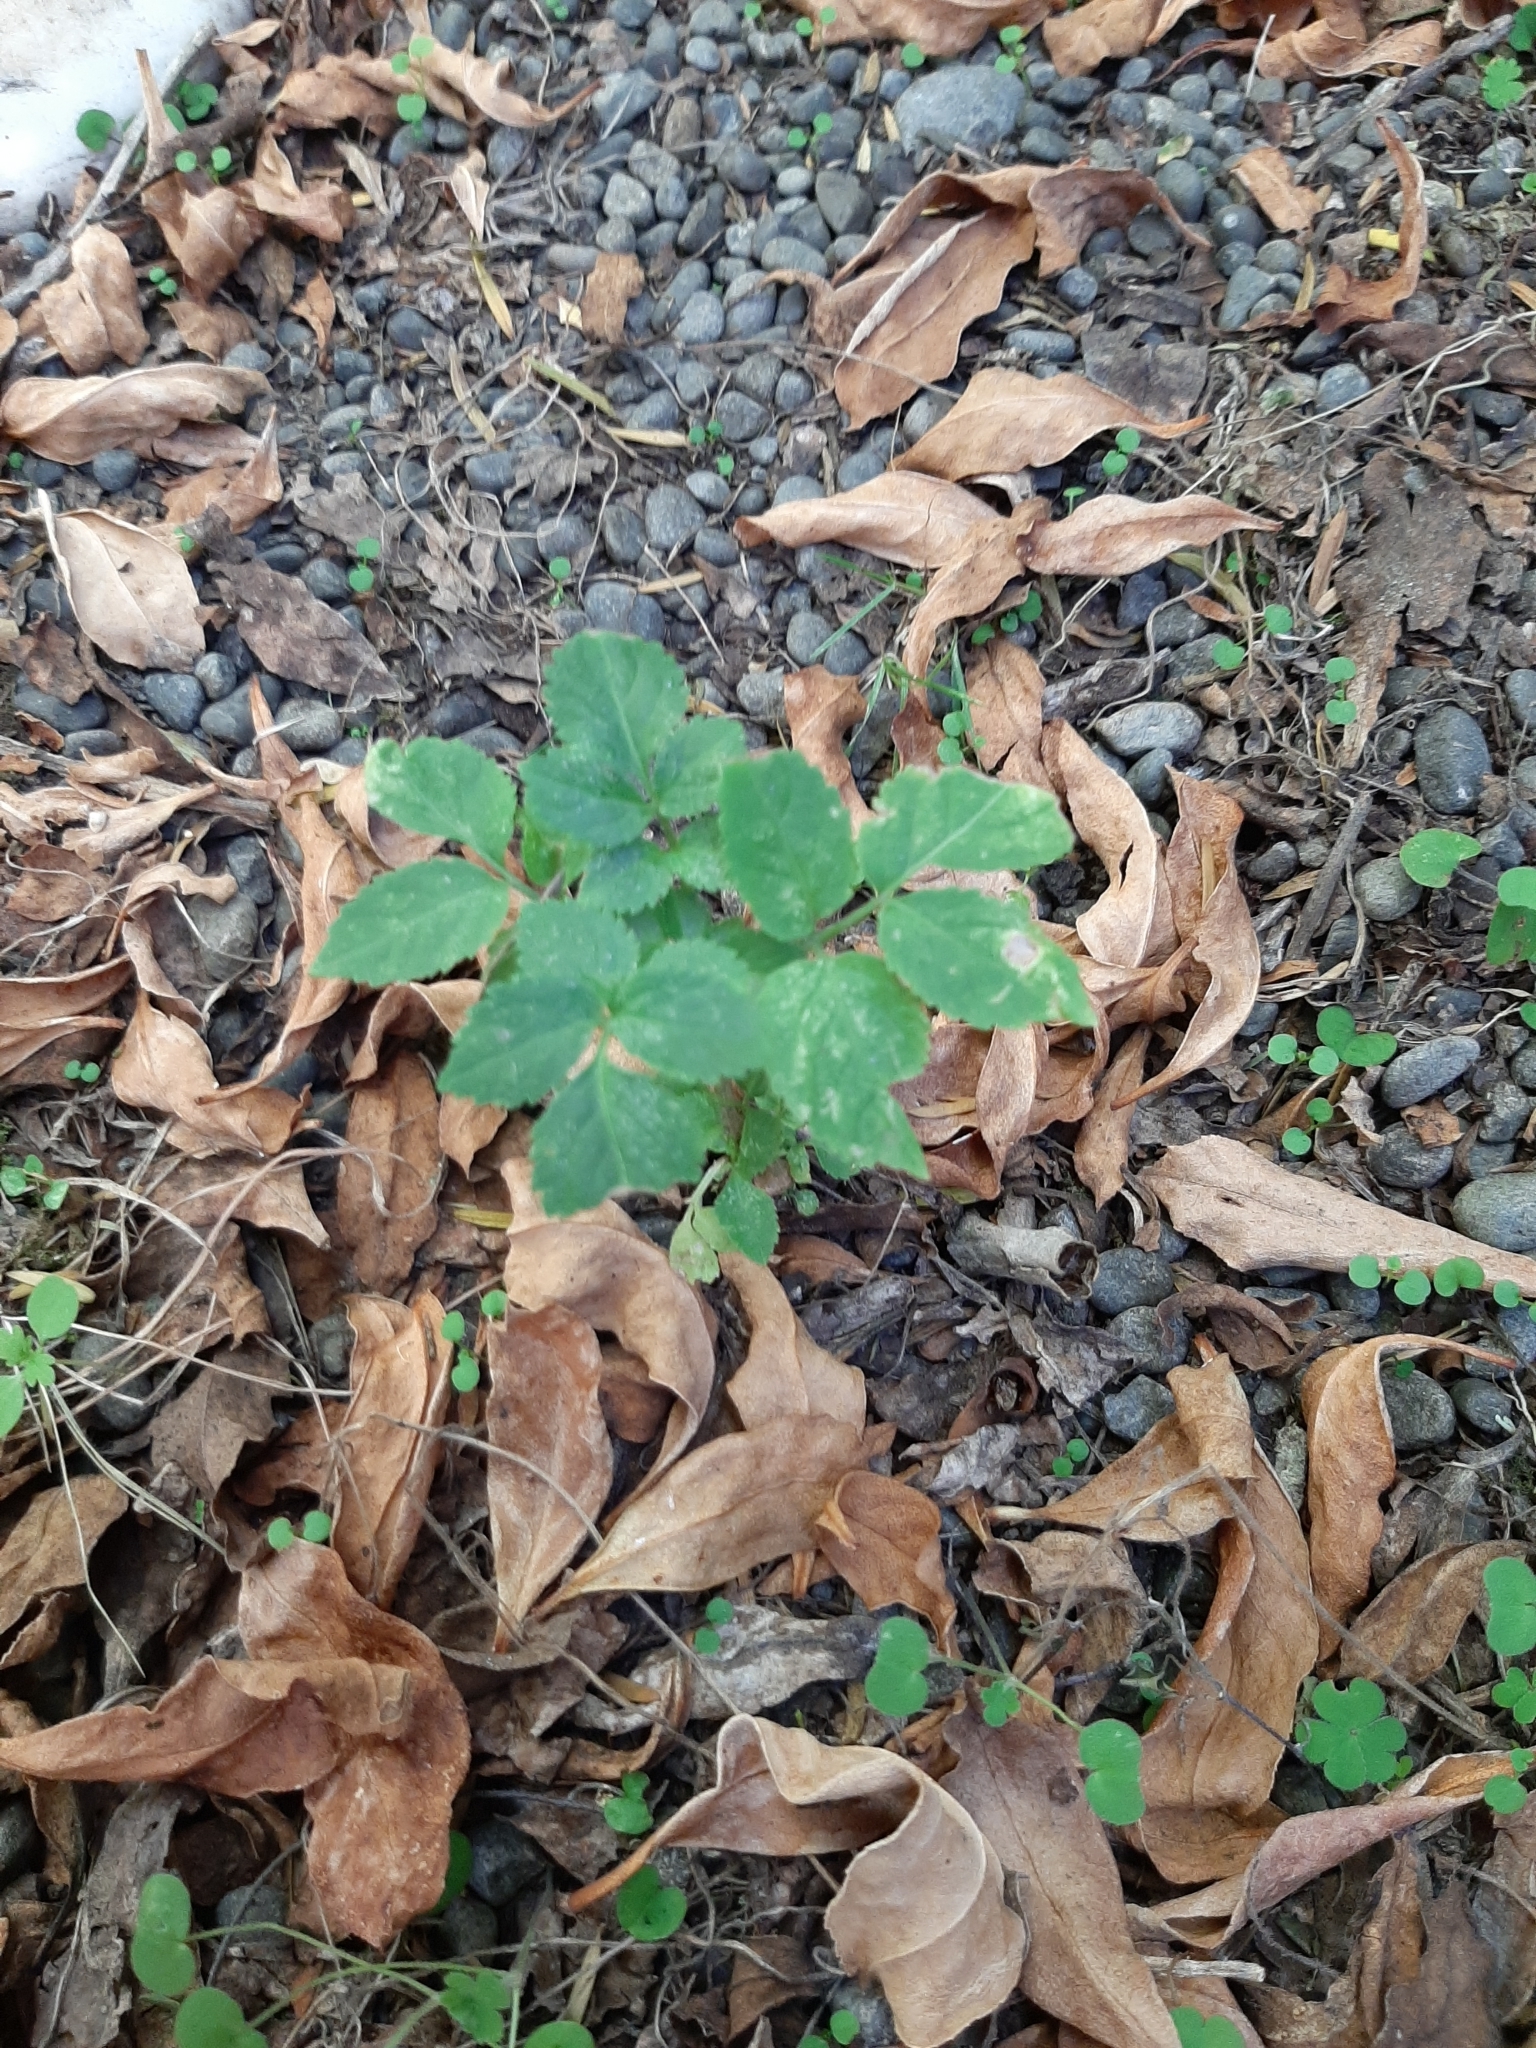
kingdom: Plantae
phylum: Tracheophyta
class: Magnoliopsida
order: Dipsacales
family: Viburnaceae
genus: Sambucus
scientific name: Sambucus nigra
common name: Elder
